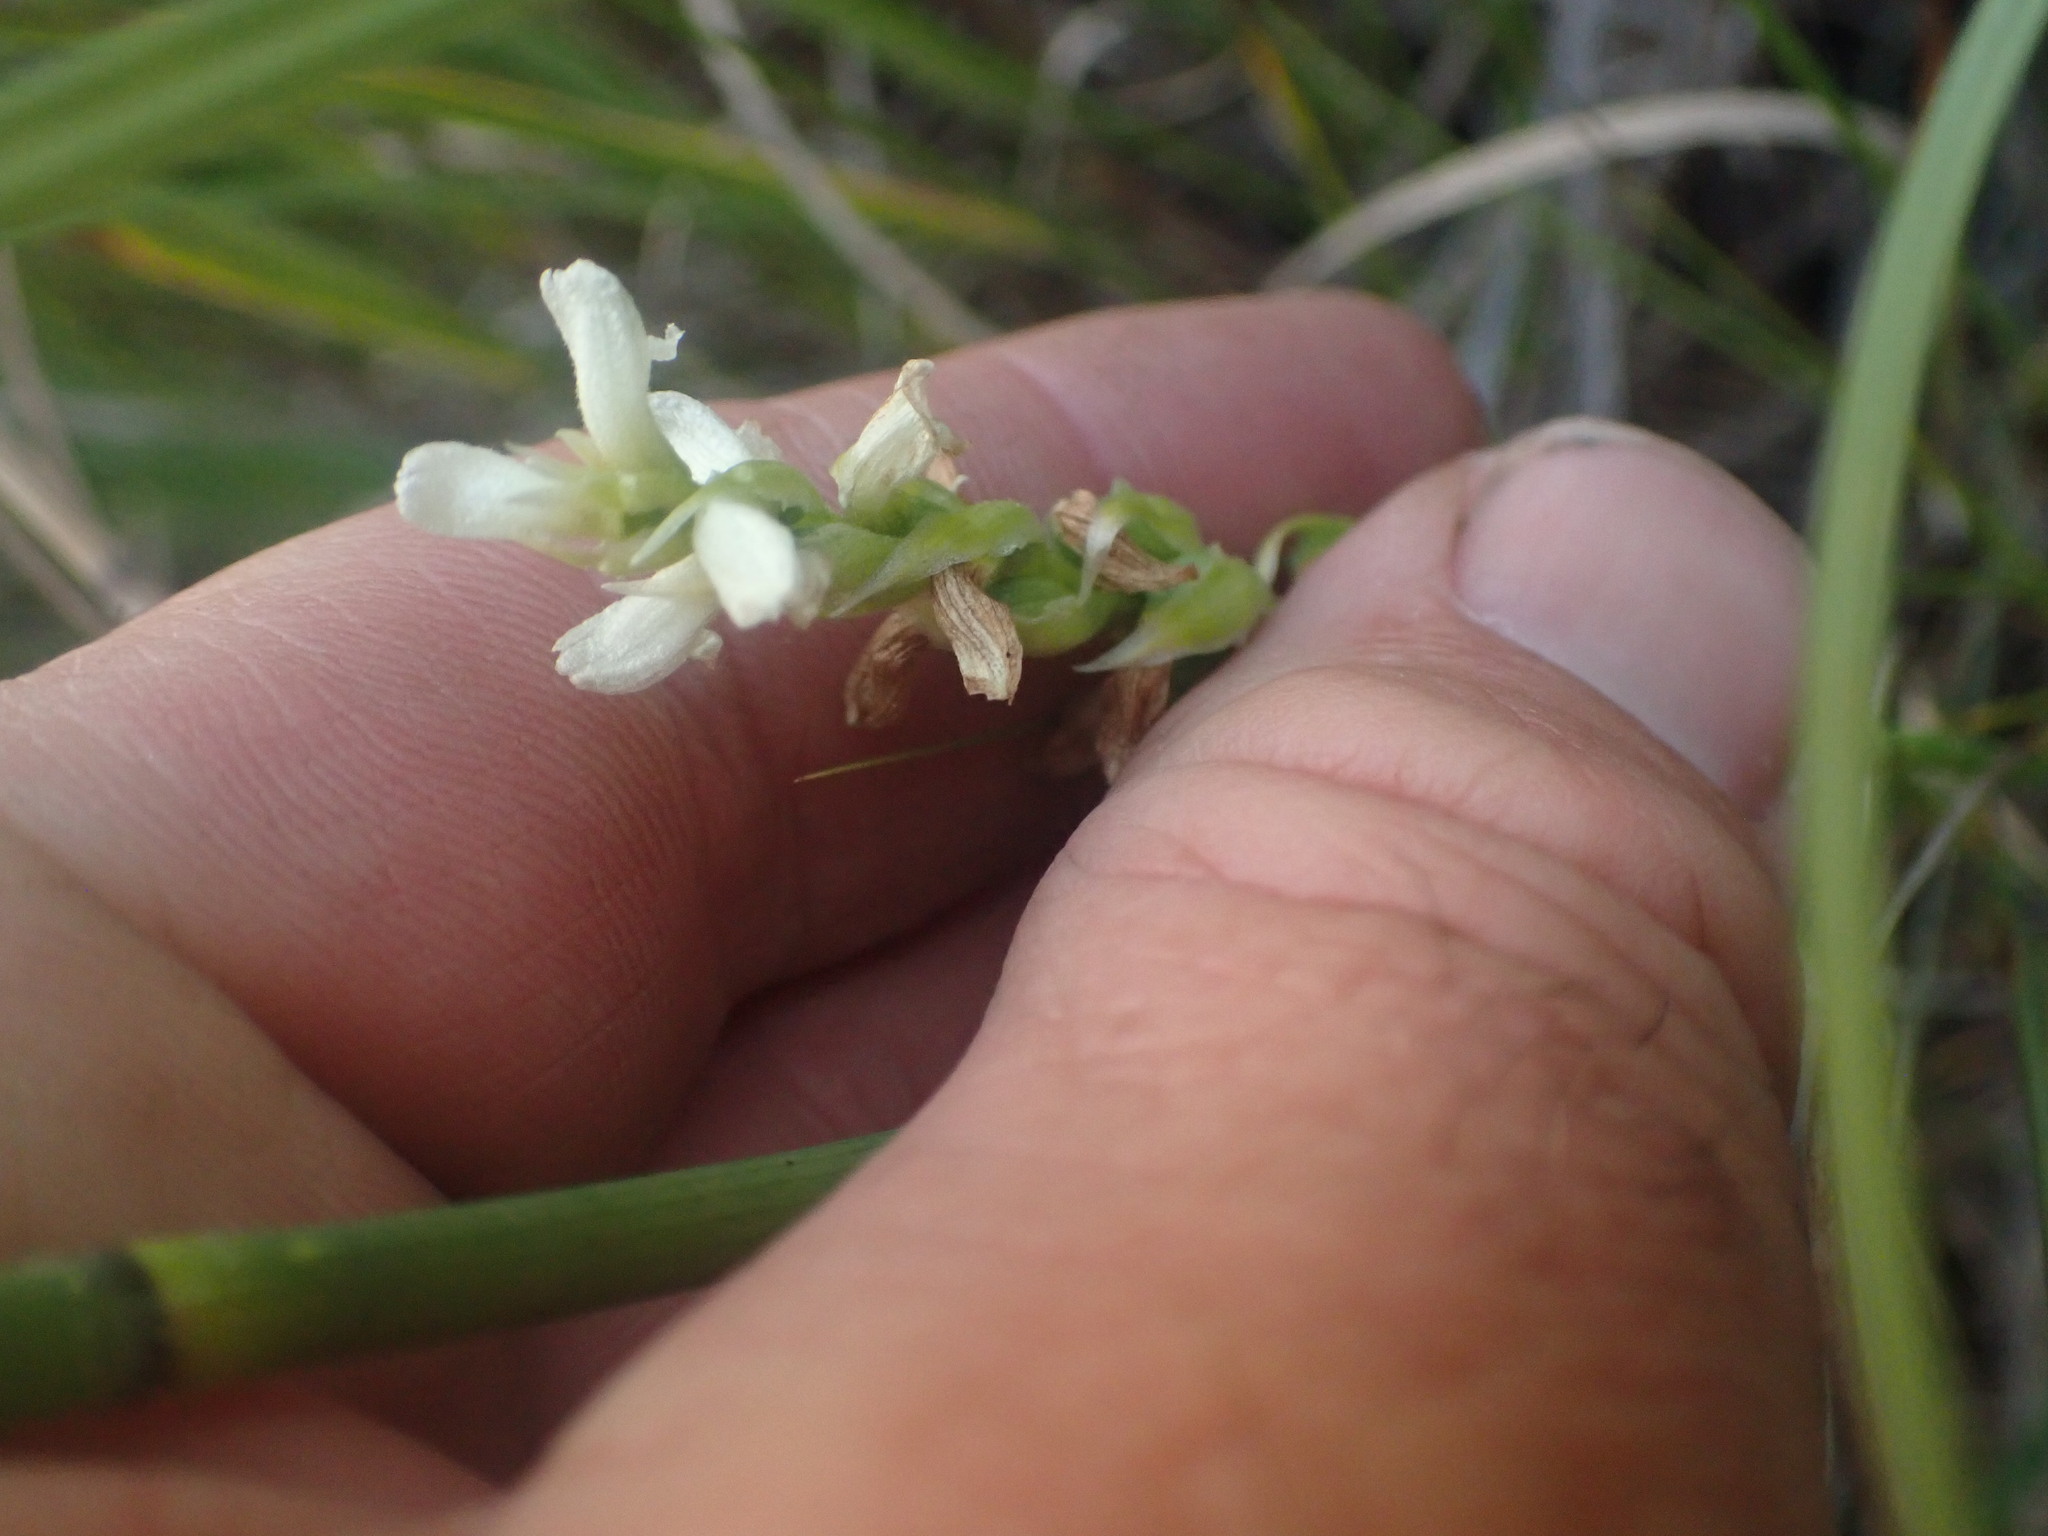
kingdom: Plantae
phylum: Tracheophyta
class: Liliopsida
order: Asparagales
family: Orchidaceae
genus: Spiranthes
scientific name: Spiranthes romanzoffiana
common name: Irish lady's-tresses
